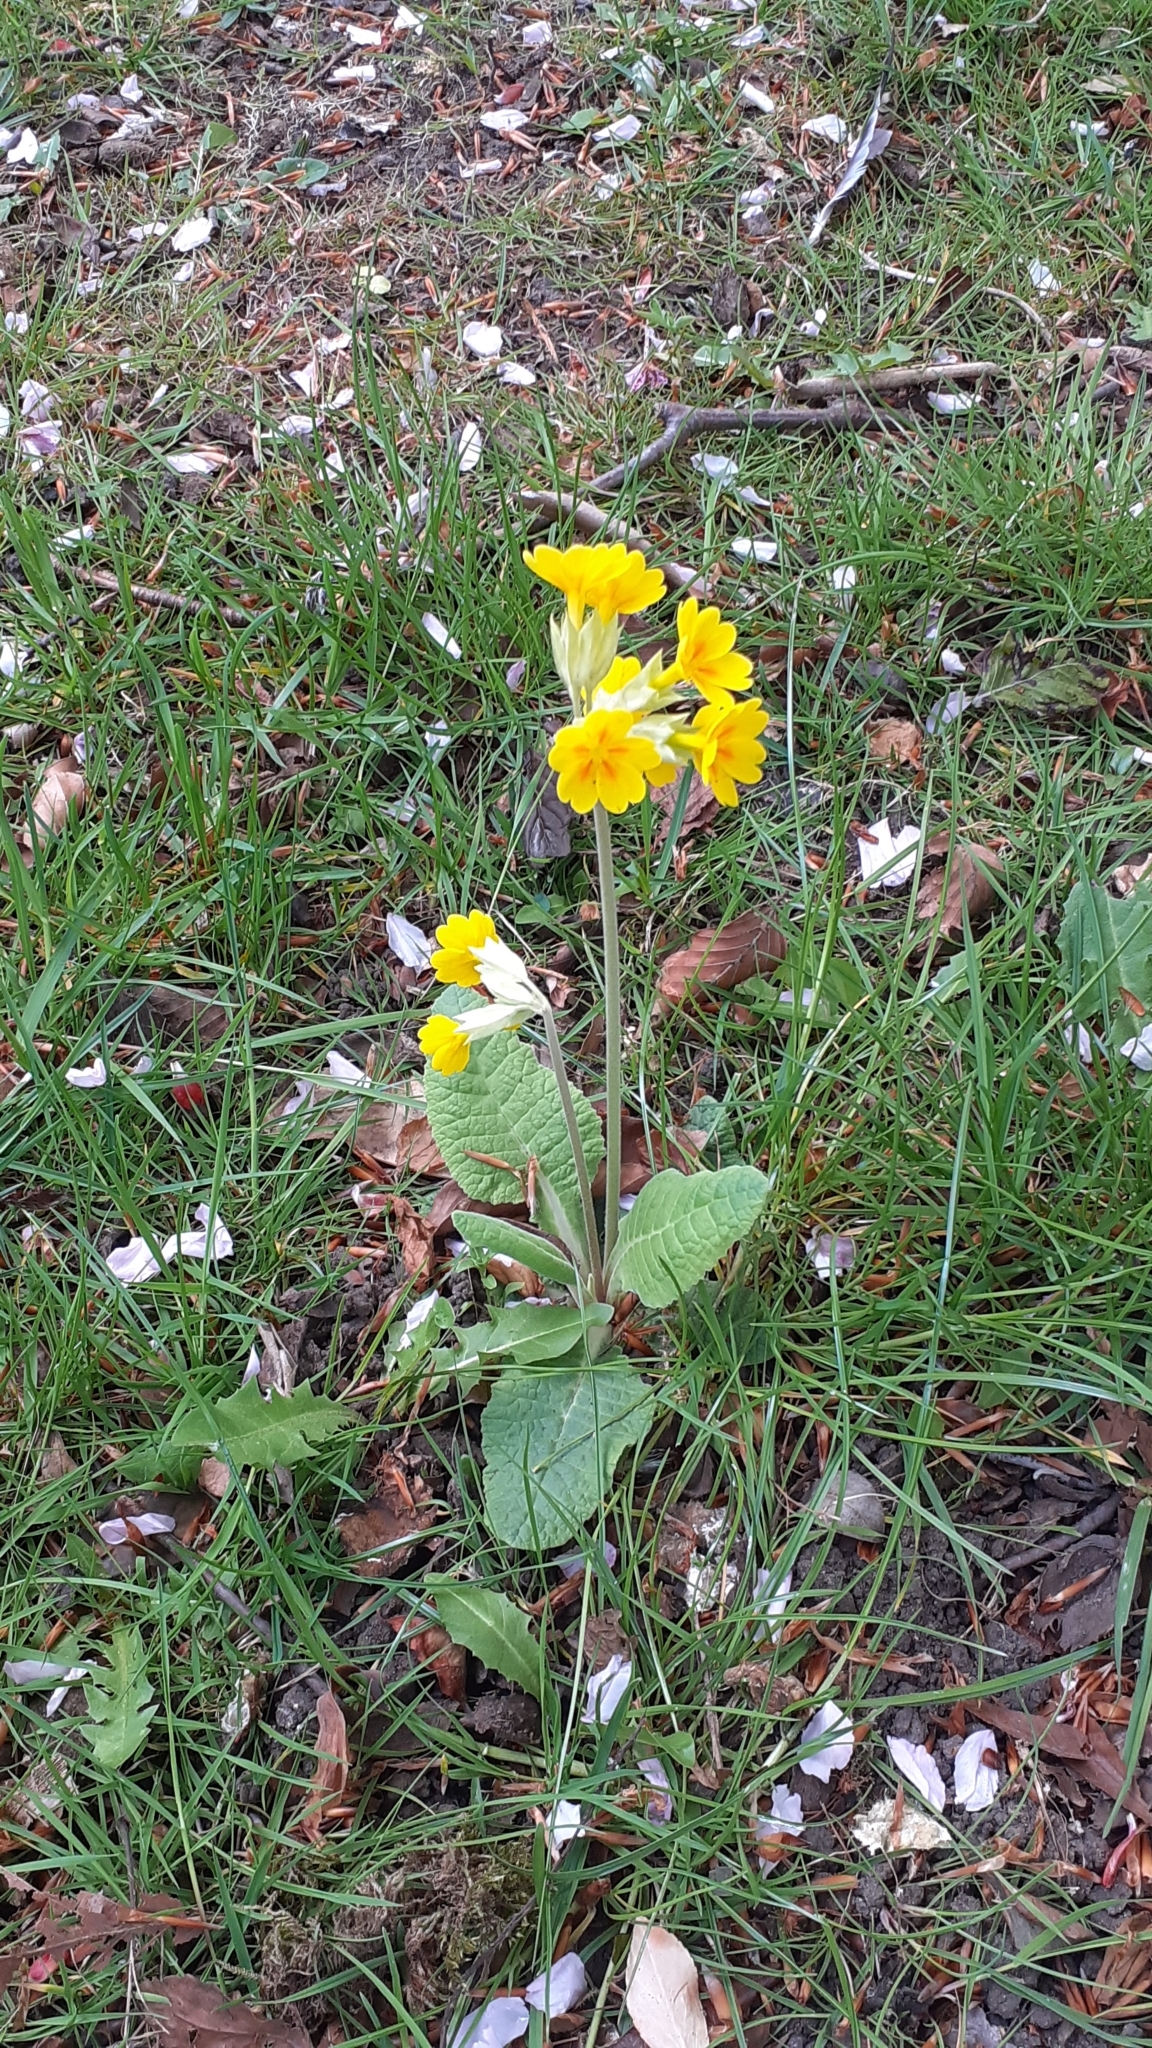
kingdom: Plantae
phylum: Tracheophyta
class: Magnoliopsida
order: Ericales
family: Primulaceae
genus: Primula
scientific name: Primula polyantha
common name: False oxlip
